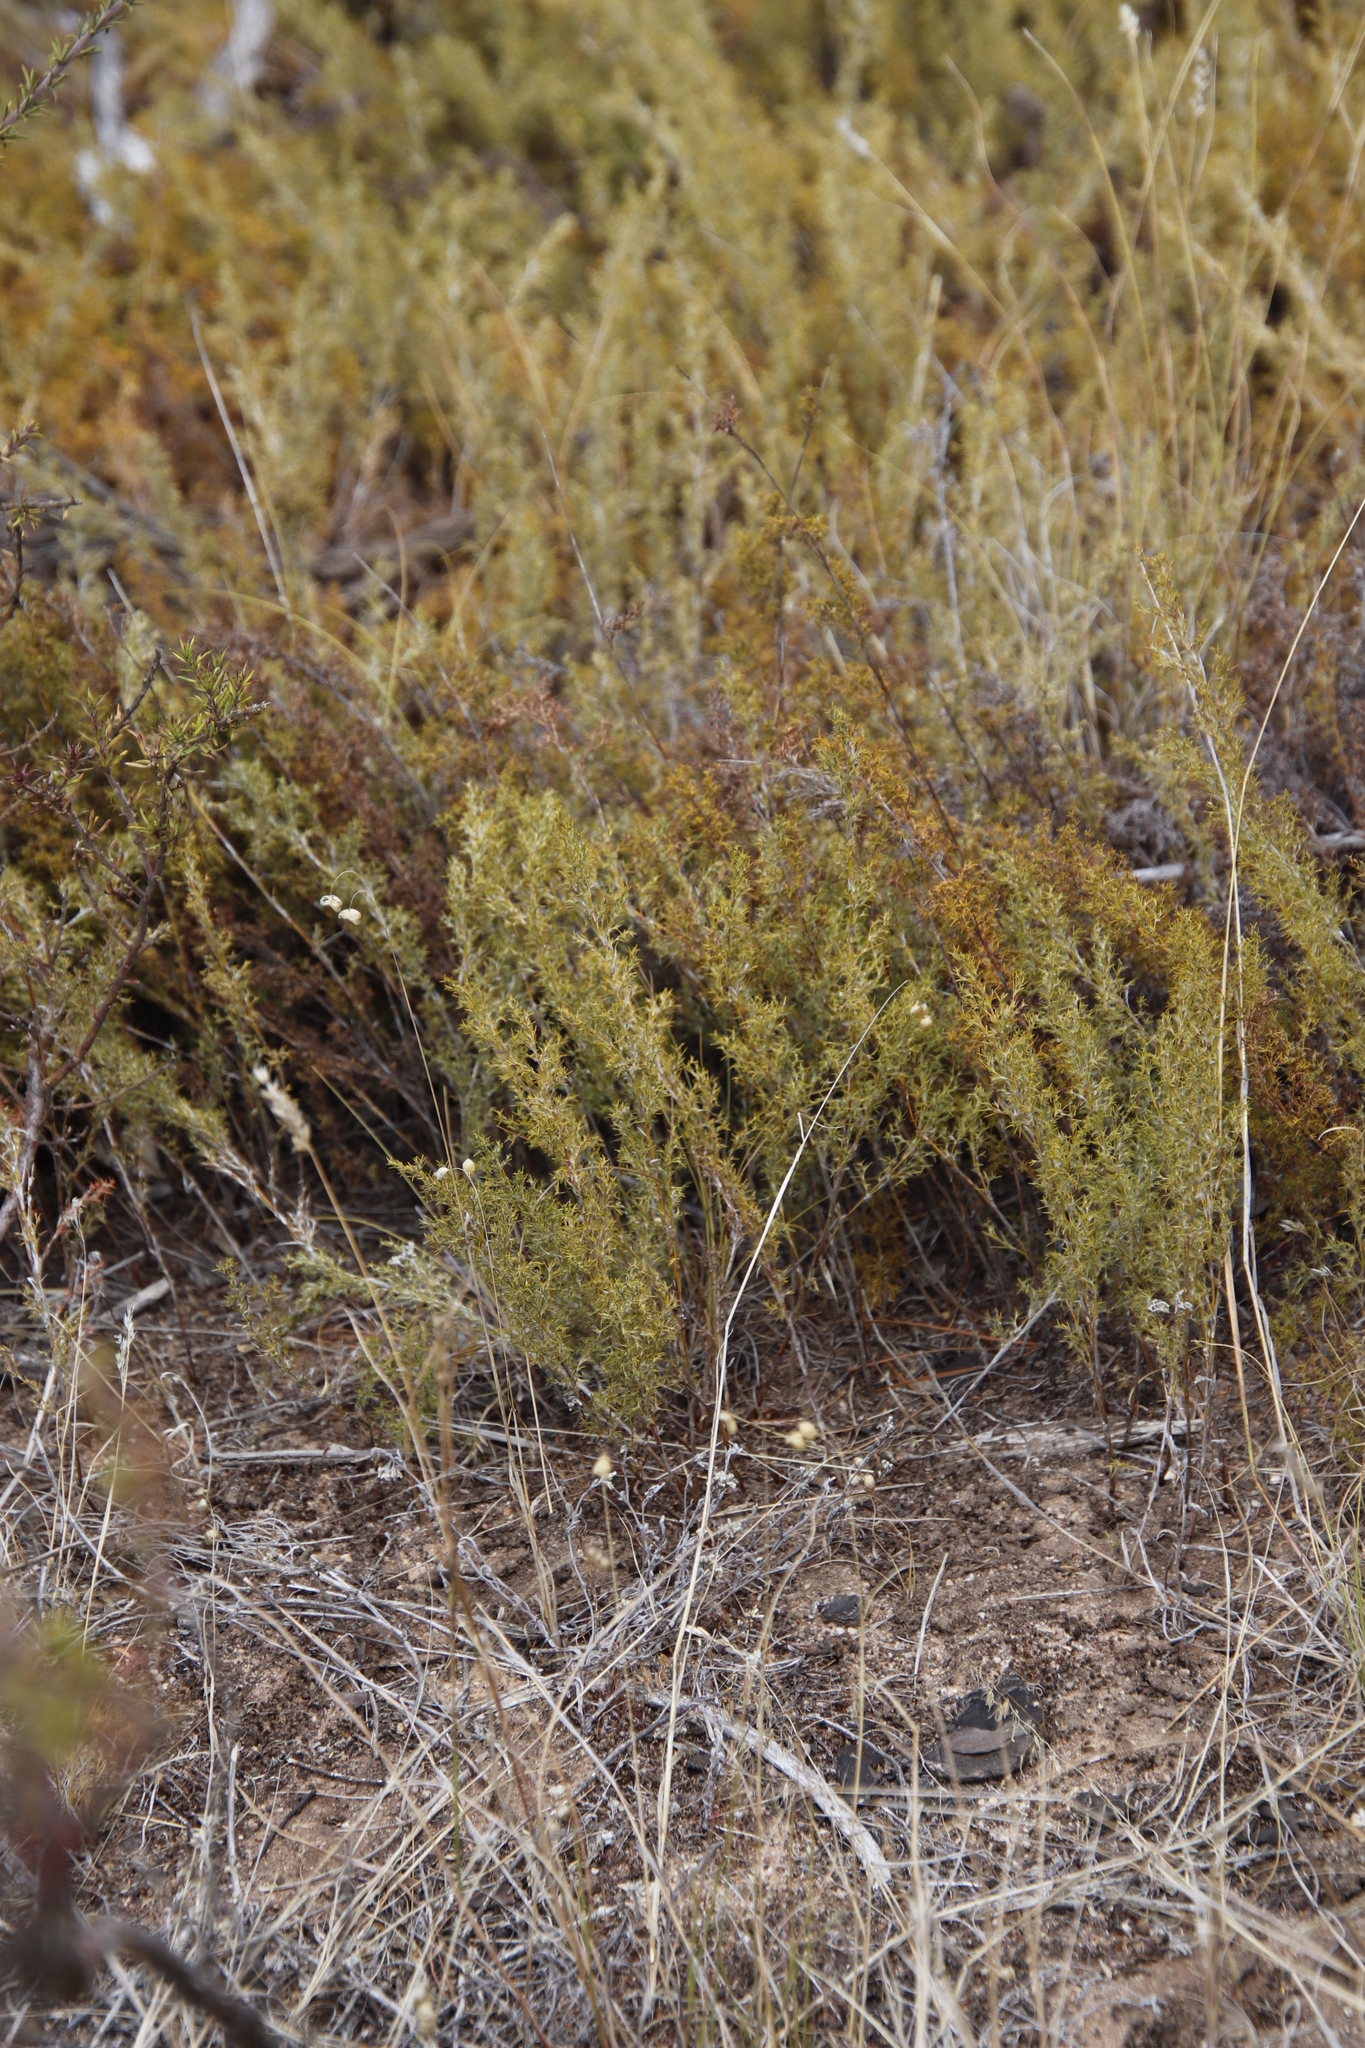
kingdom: Plantae
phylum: Tracheophyta
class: Liliopsida
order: Poales
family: Restionaceae
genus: Thamnochortus
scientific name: Thamnochortus fruticosus
